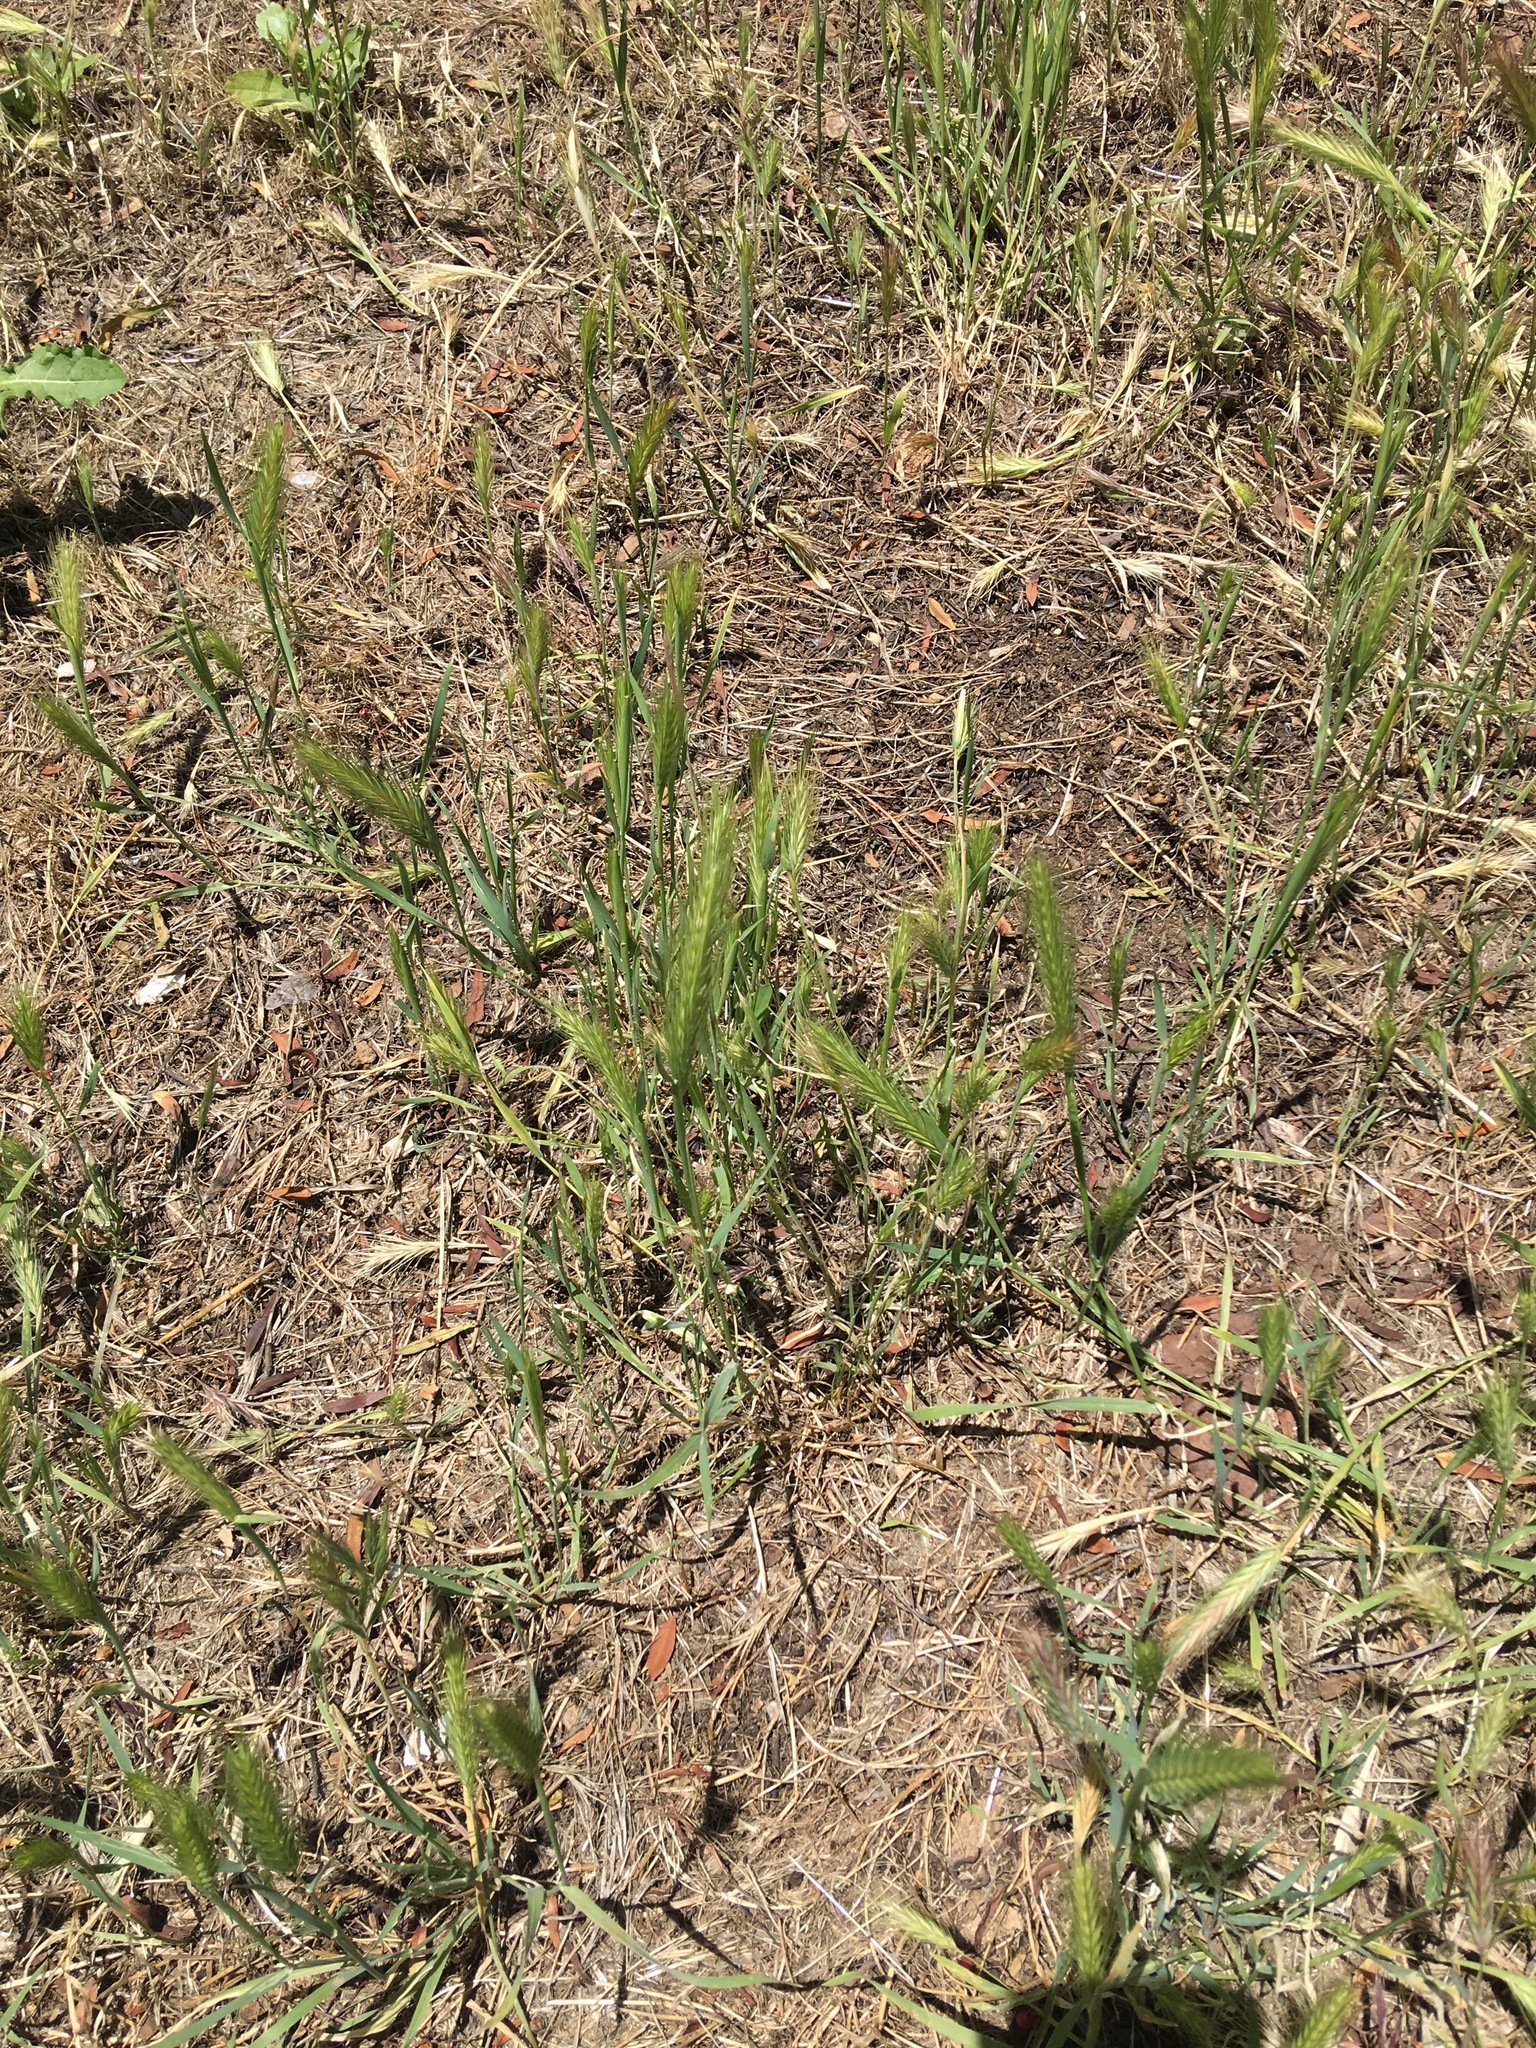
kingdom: Plantae
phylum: Tracheophyta
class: Liliopsida
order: Poales
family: Poaceae
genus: Hordeum
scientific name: Hordeum murinum
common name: Wall barley
